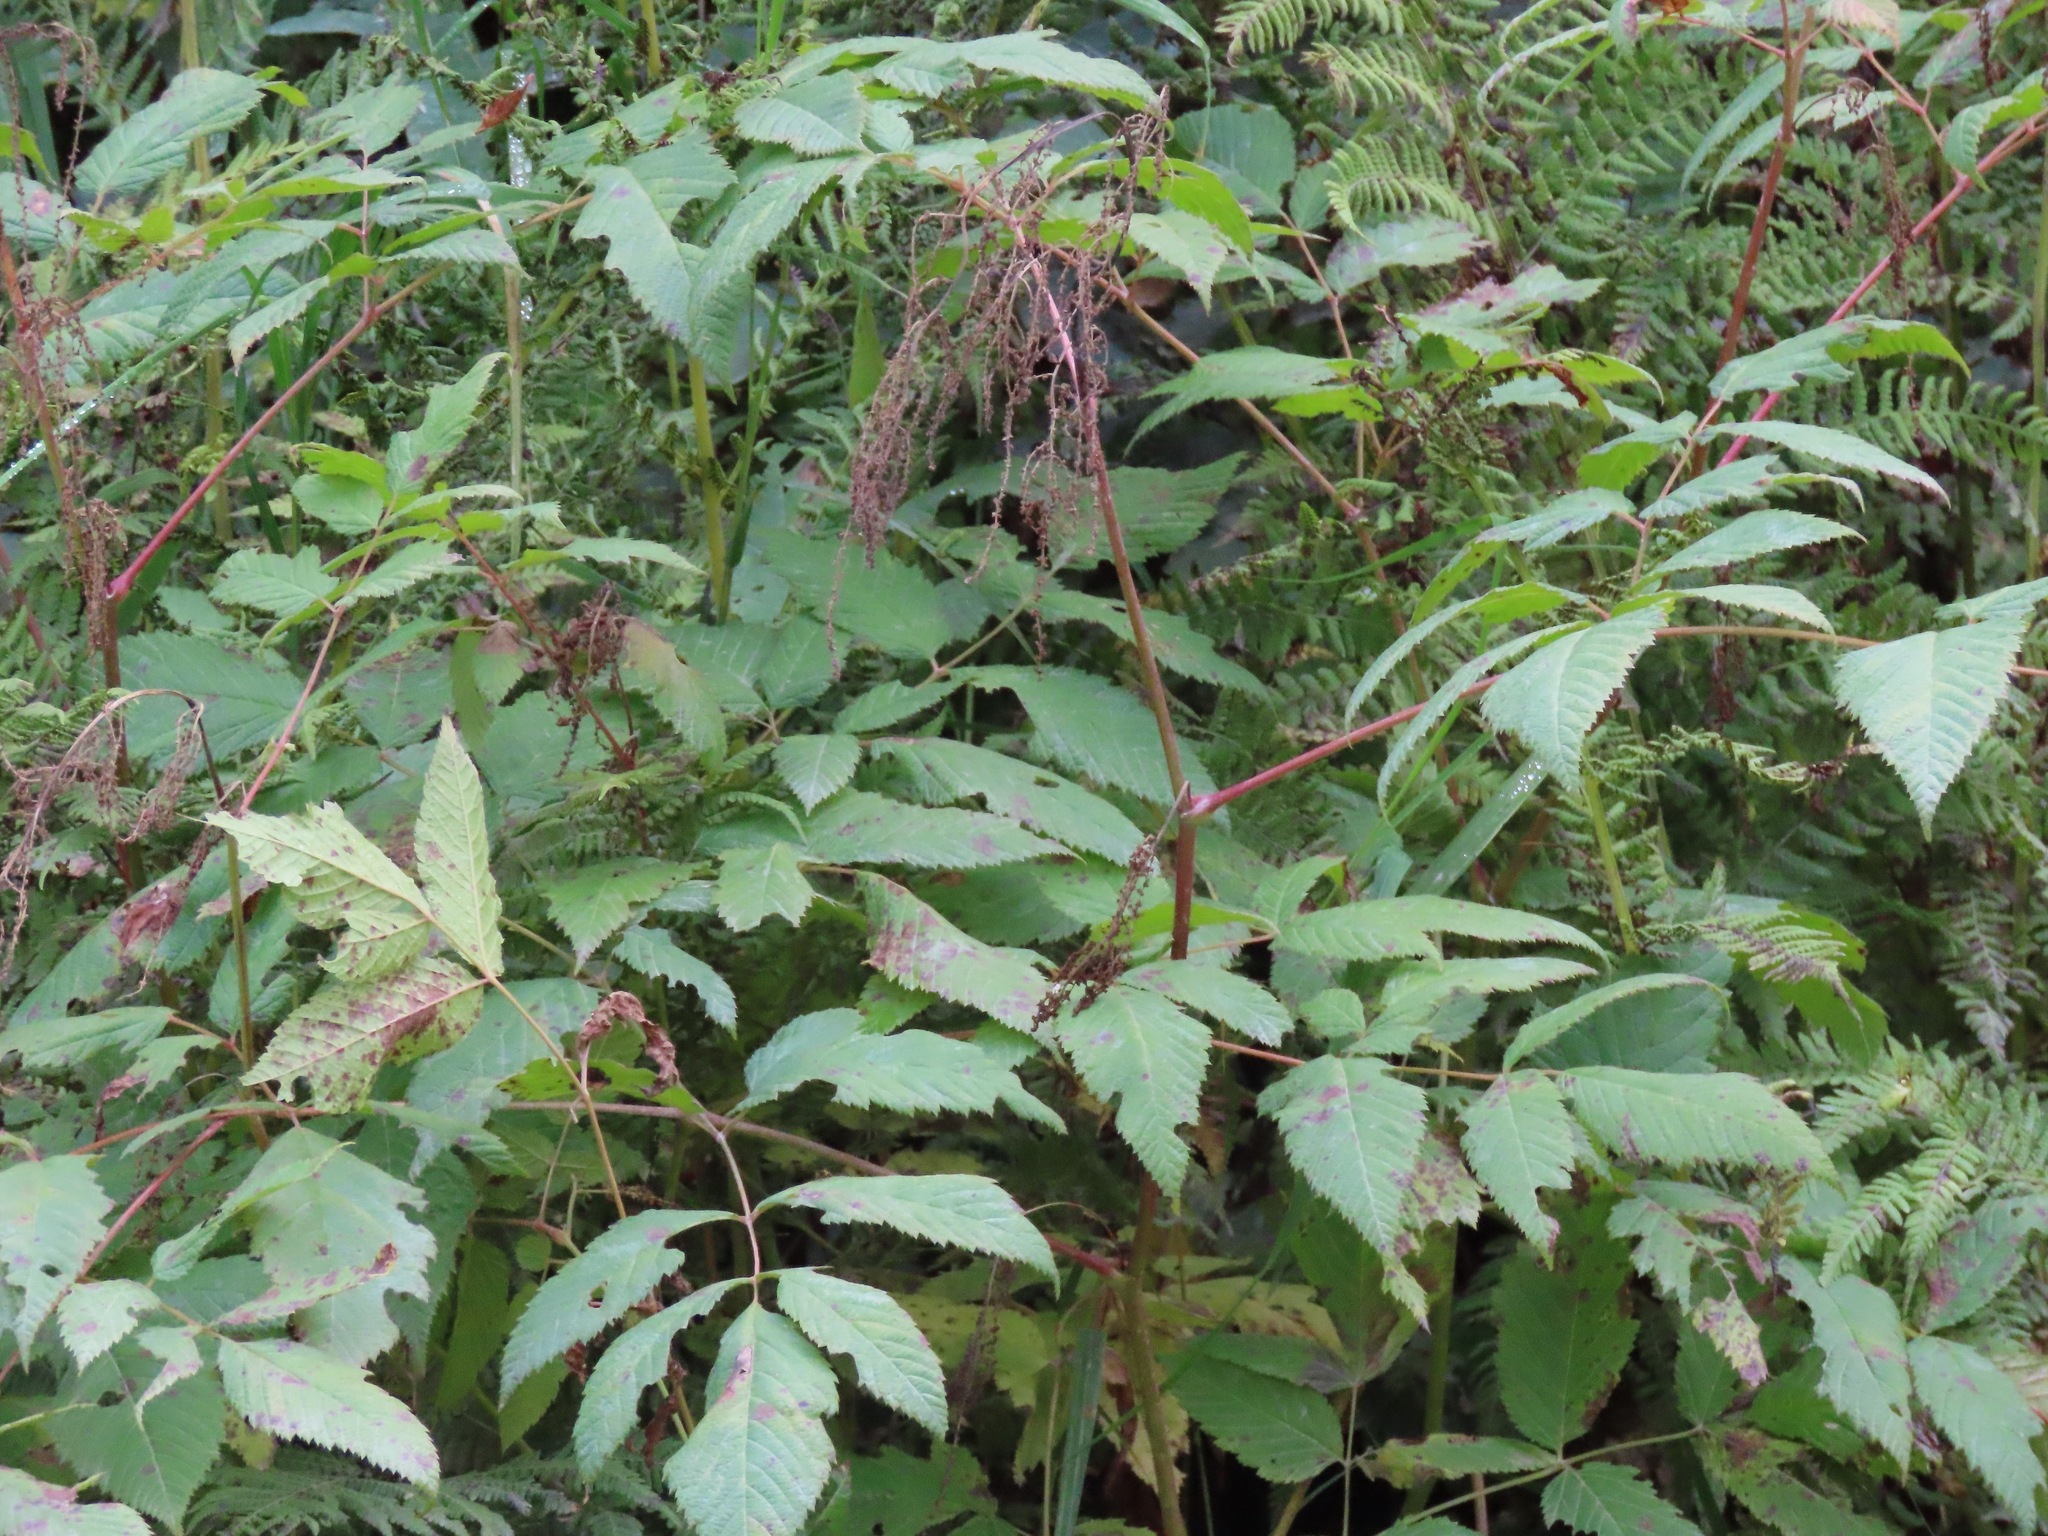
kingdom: Plantae
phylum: Tracheophyta
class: Magnoliopsida
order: Rosales
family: Rosaceae
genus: Aruncus
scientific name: Aruncus dioicus
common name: Buck's-beard
